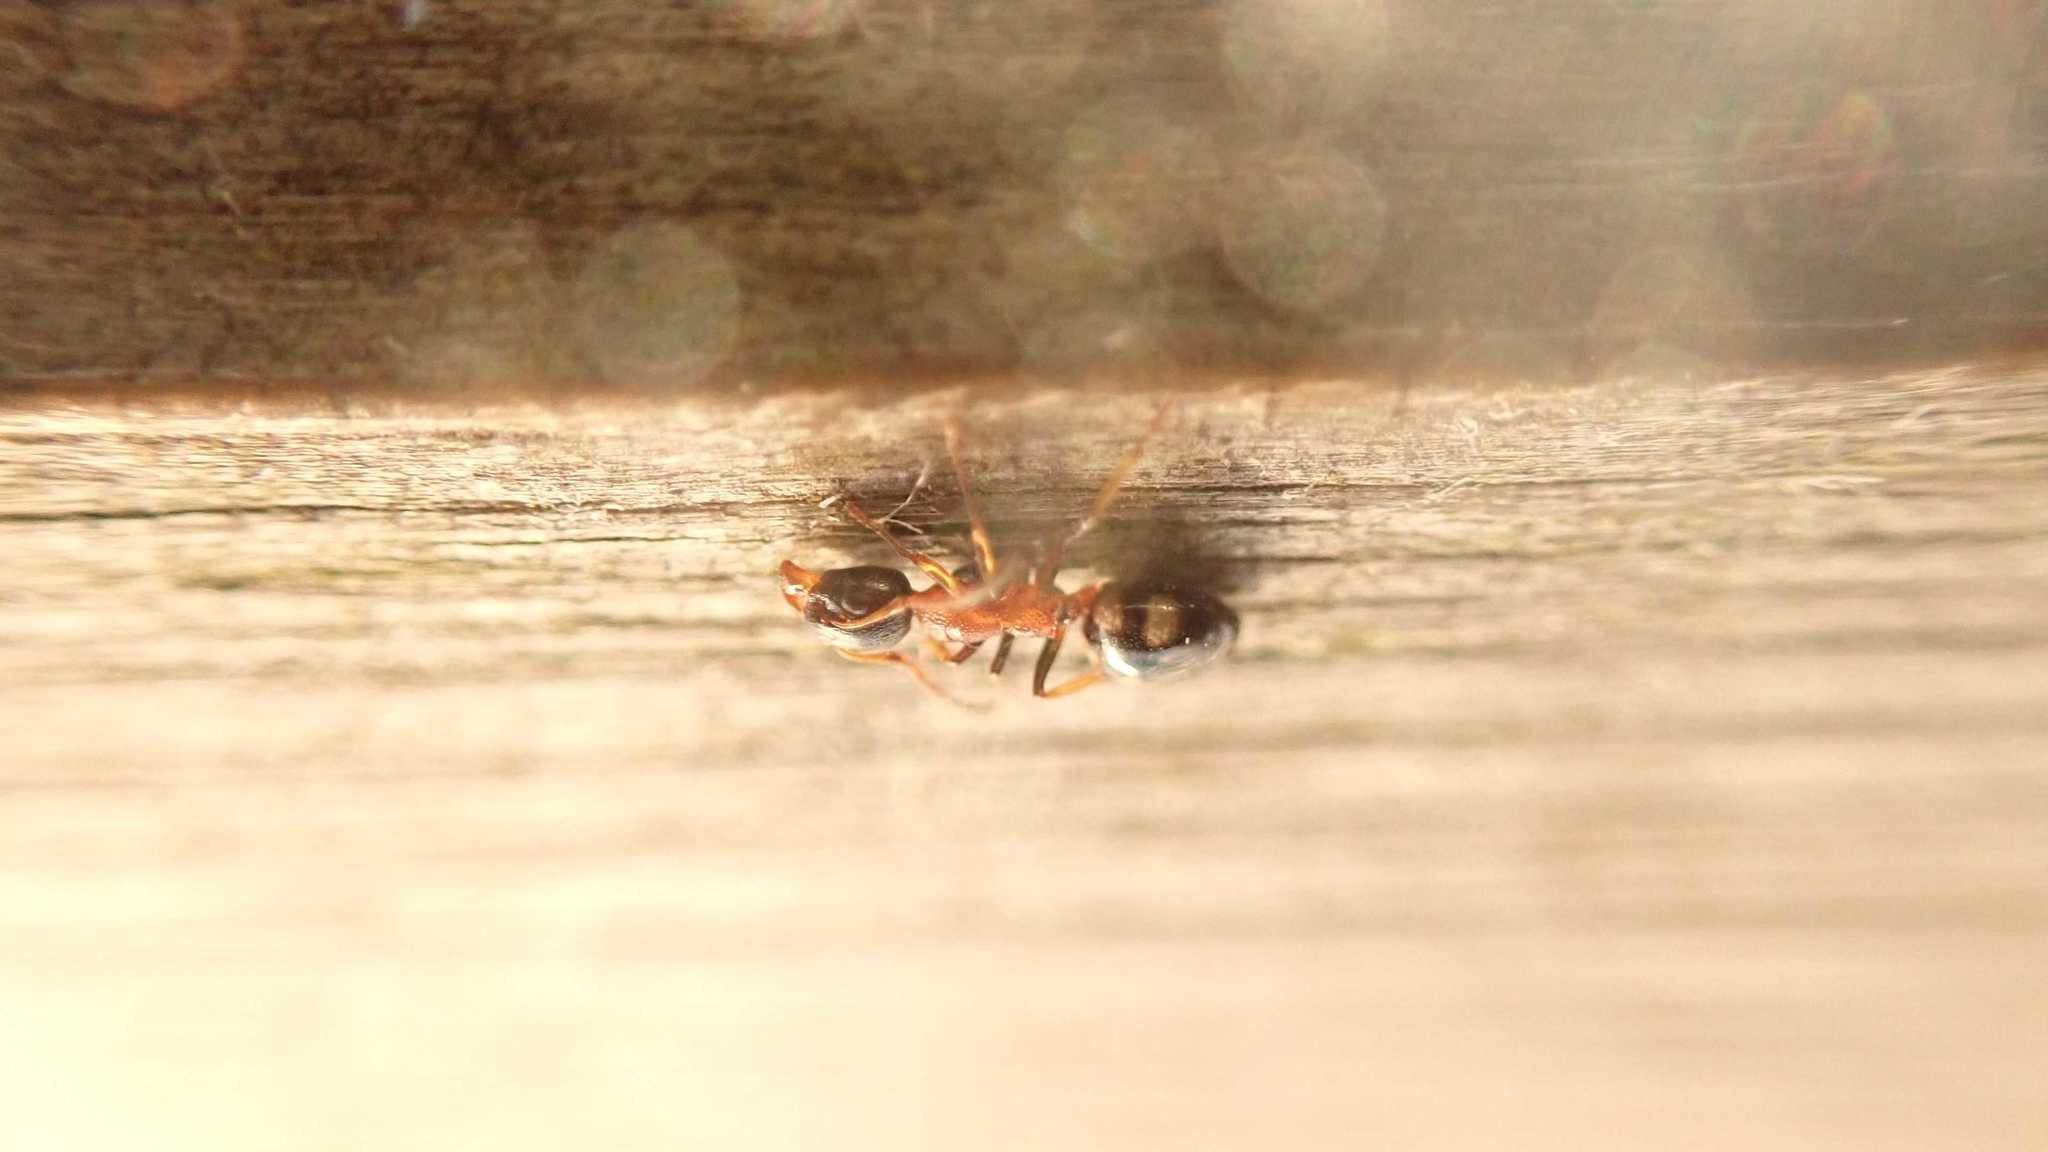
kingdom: Animalia
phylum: Arthropoda
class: Insecta
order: Hymenoptera
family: Formicidae
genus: Dolichoderus
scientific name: Dolichoderus quadripunctatus
